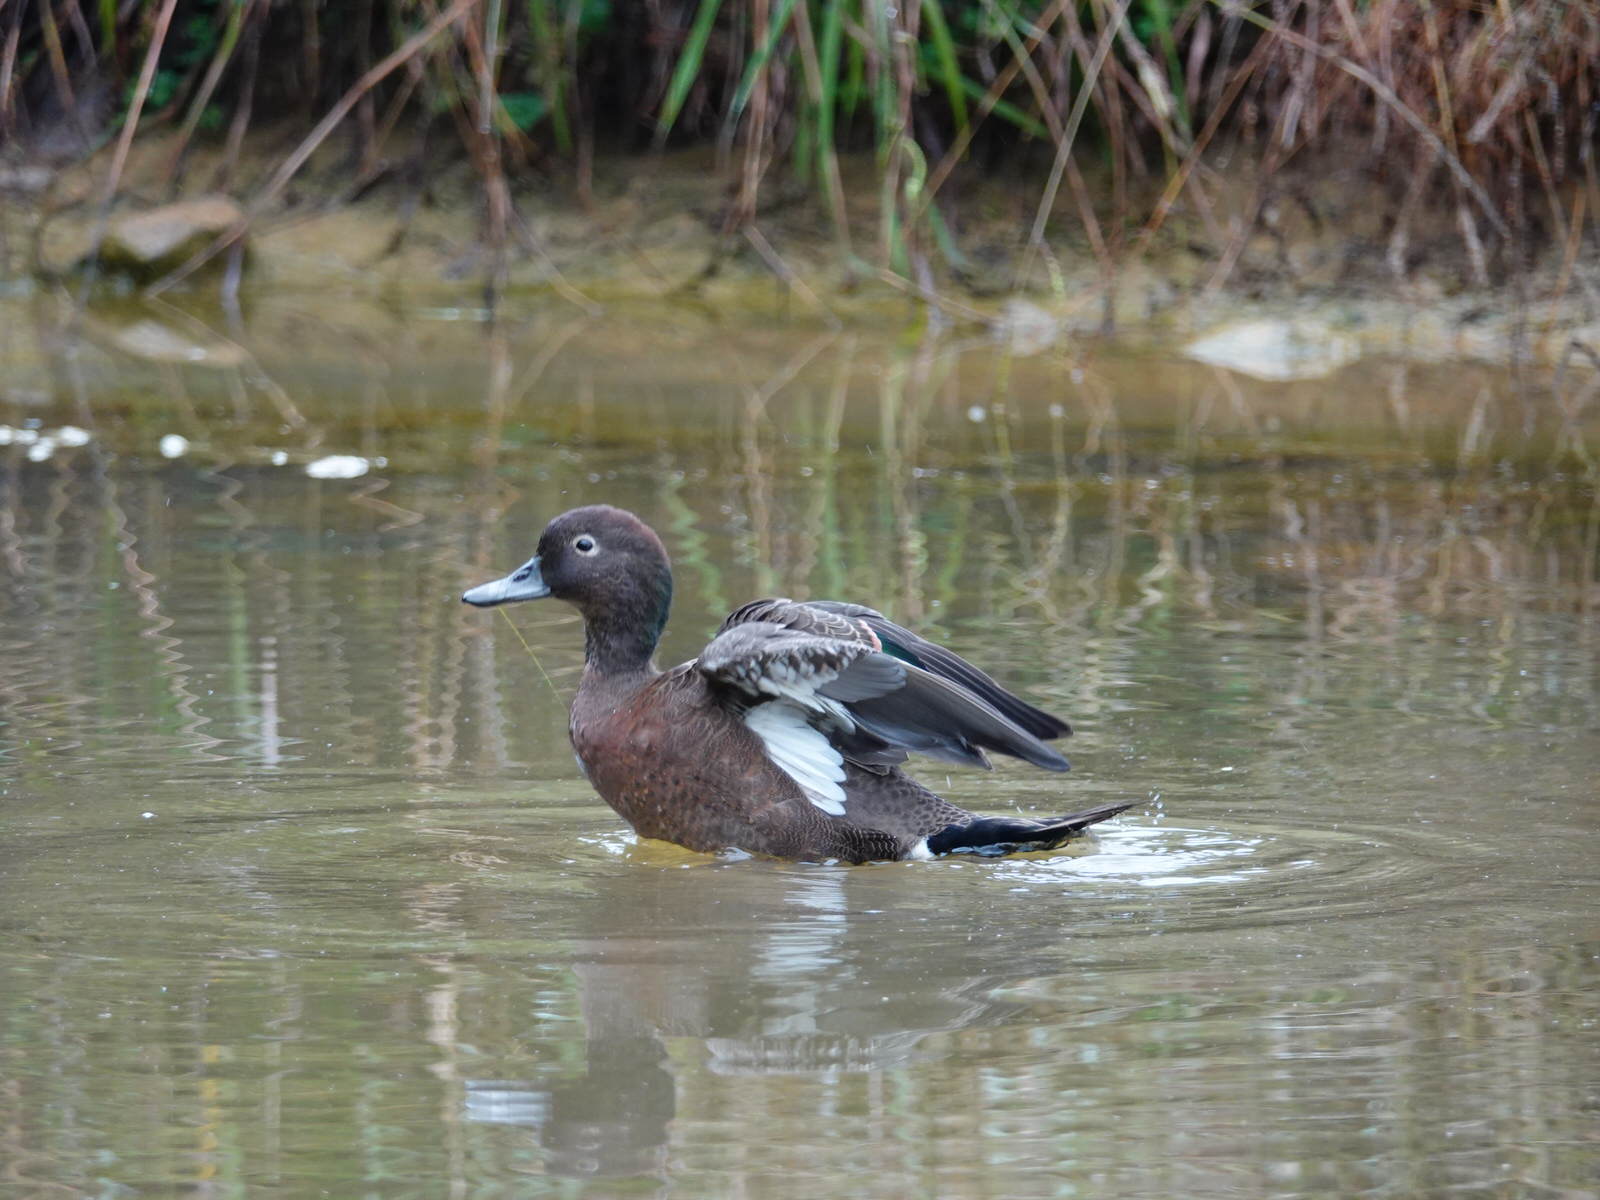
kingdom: Animalia
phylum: Chordata
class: Aves
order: Anseriformes
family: Anatidae
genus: Anas
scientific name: Anas chlorotis
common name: Brown teal
